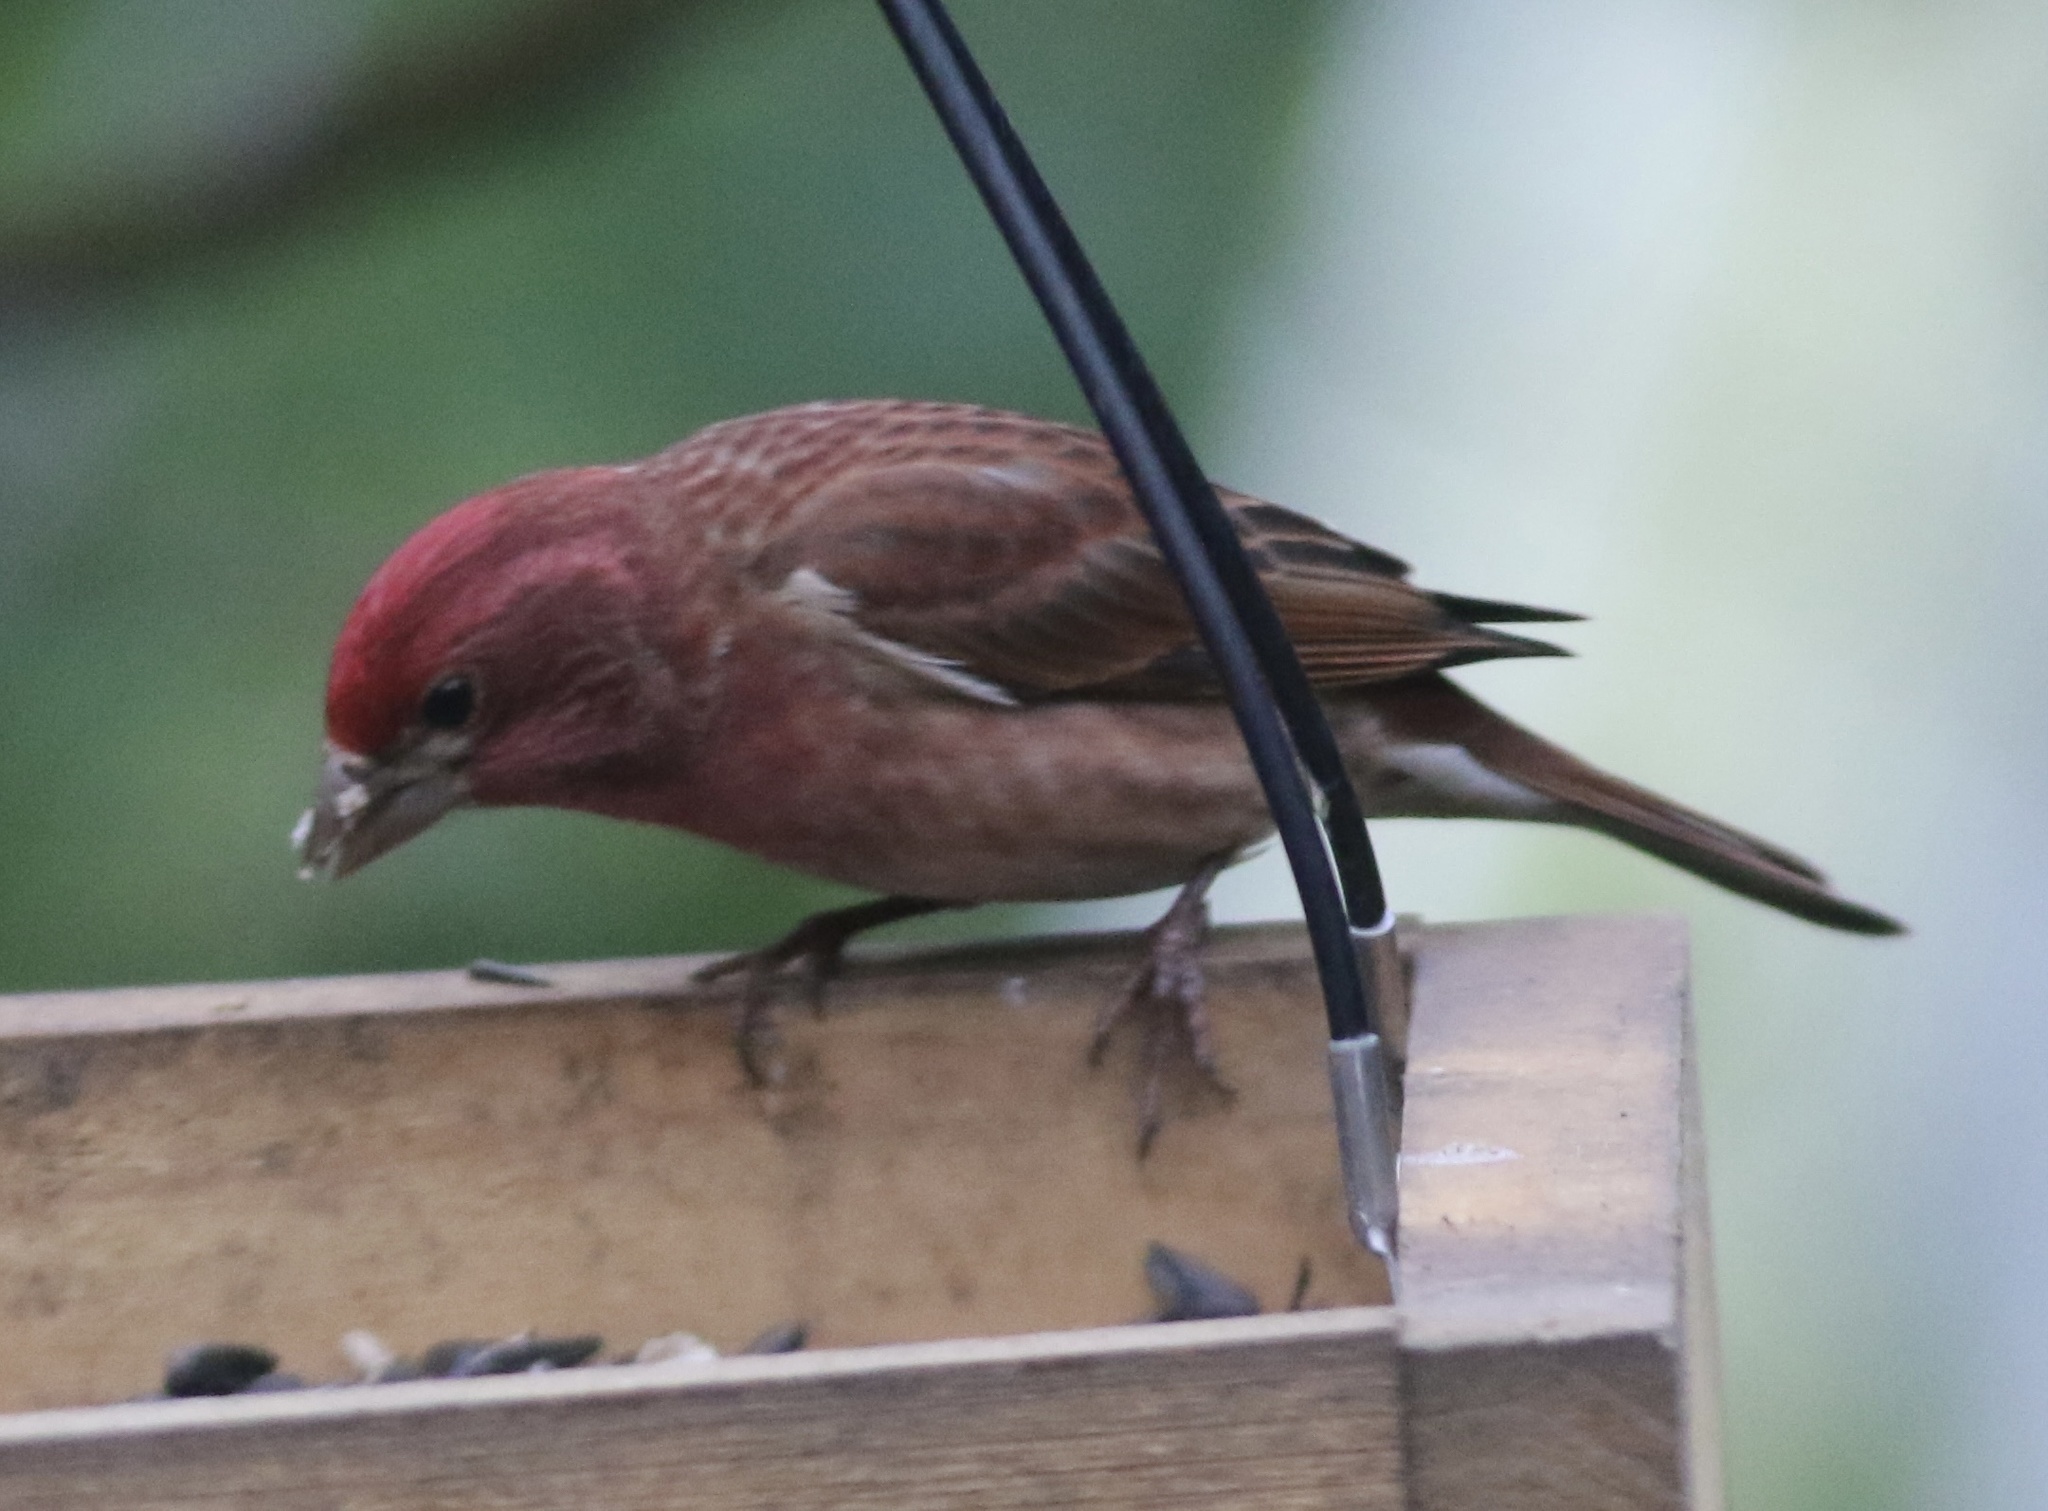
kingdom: Animalia
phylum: Chordata
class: Aves
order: Passeriformes
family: Fringillidae
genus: Haemorhous
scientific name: Haemorhous purpureus
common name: Purple finch
